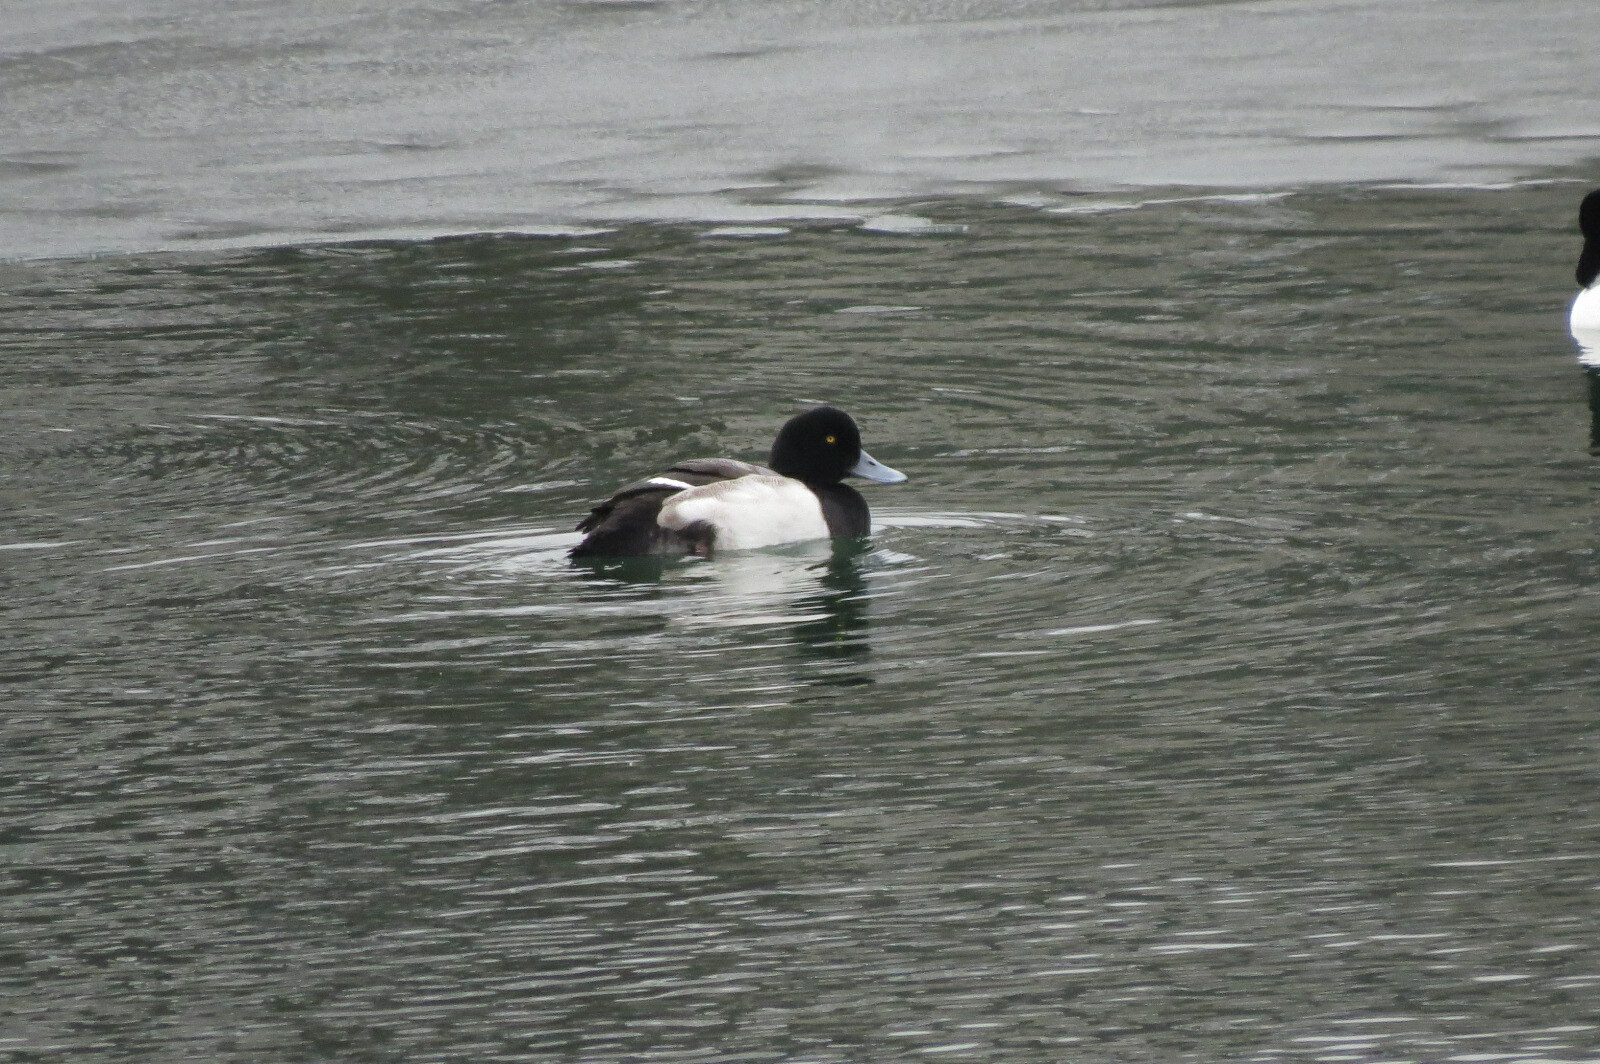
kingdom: Animalia
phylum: Chordata
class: Aves
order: Anseriformes
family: Anatidae
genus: Aythya
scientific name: Aythya marila
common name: Greater scaup
